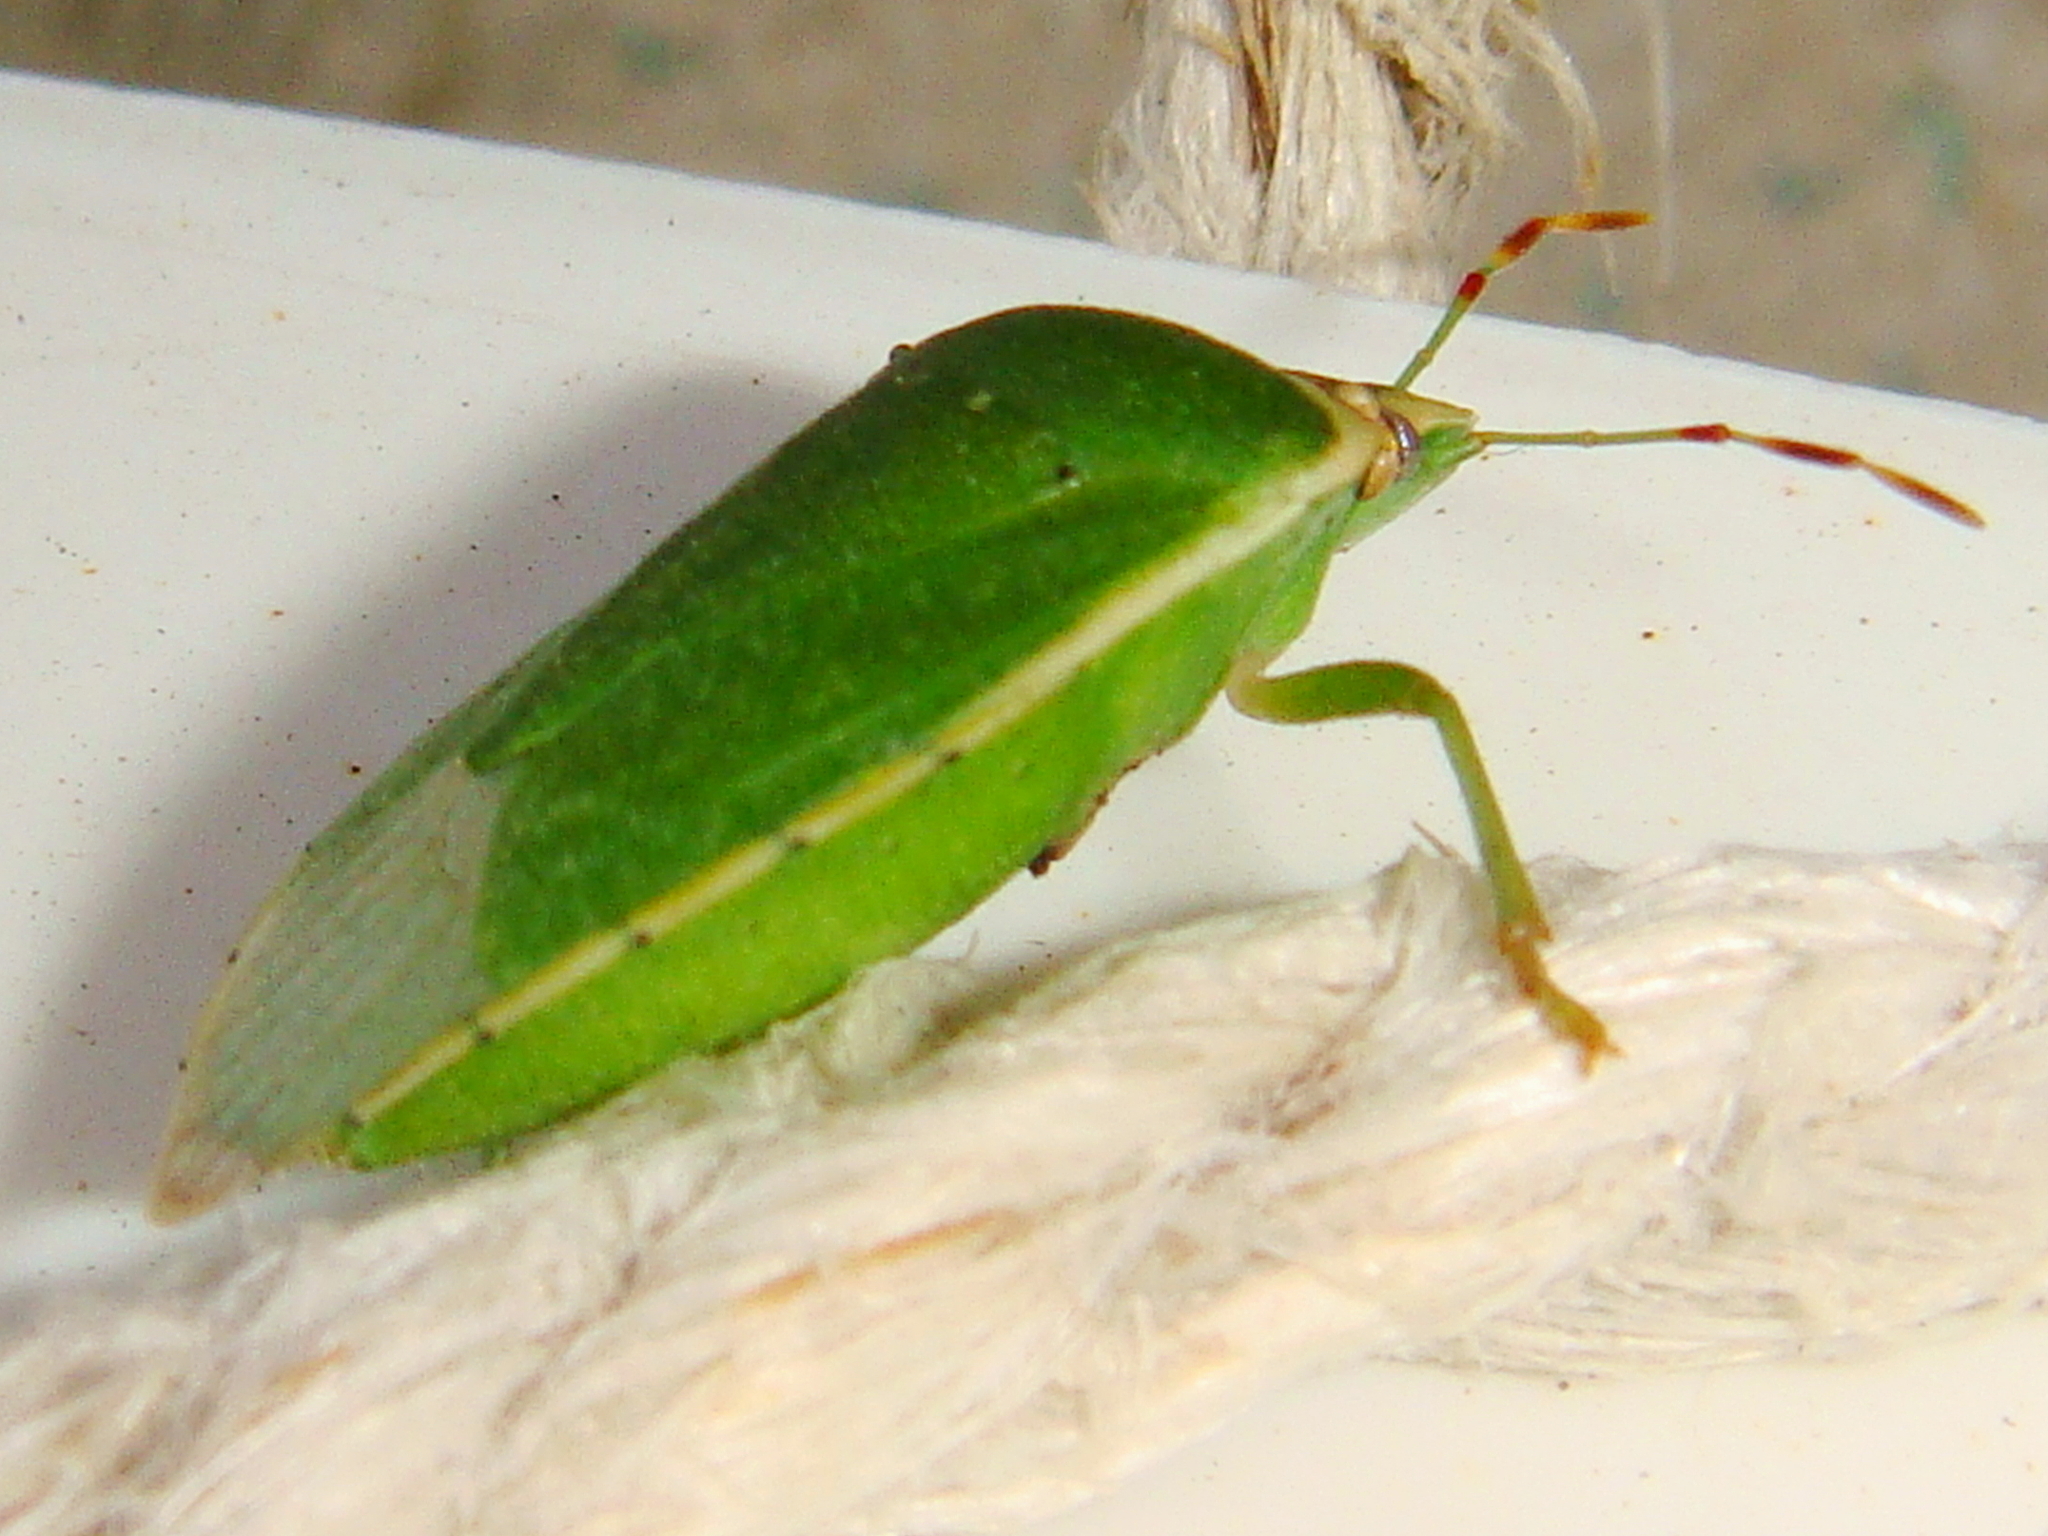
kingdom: Animalia
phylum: Arthropoda
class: Insecta
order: Hemiptera
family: Pentatomidae
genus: Nezara
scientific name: Nezara viridula
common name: Southern green stink bug
